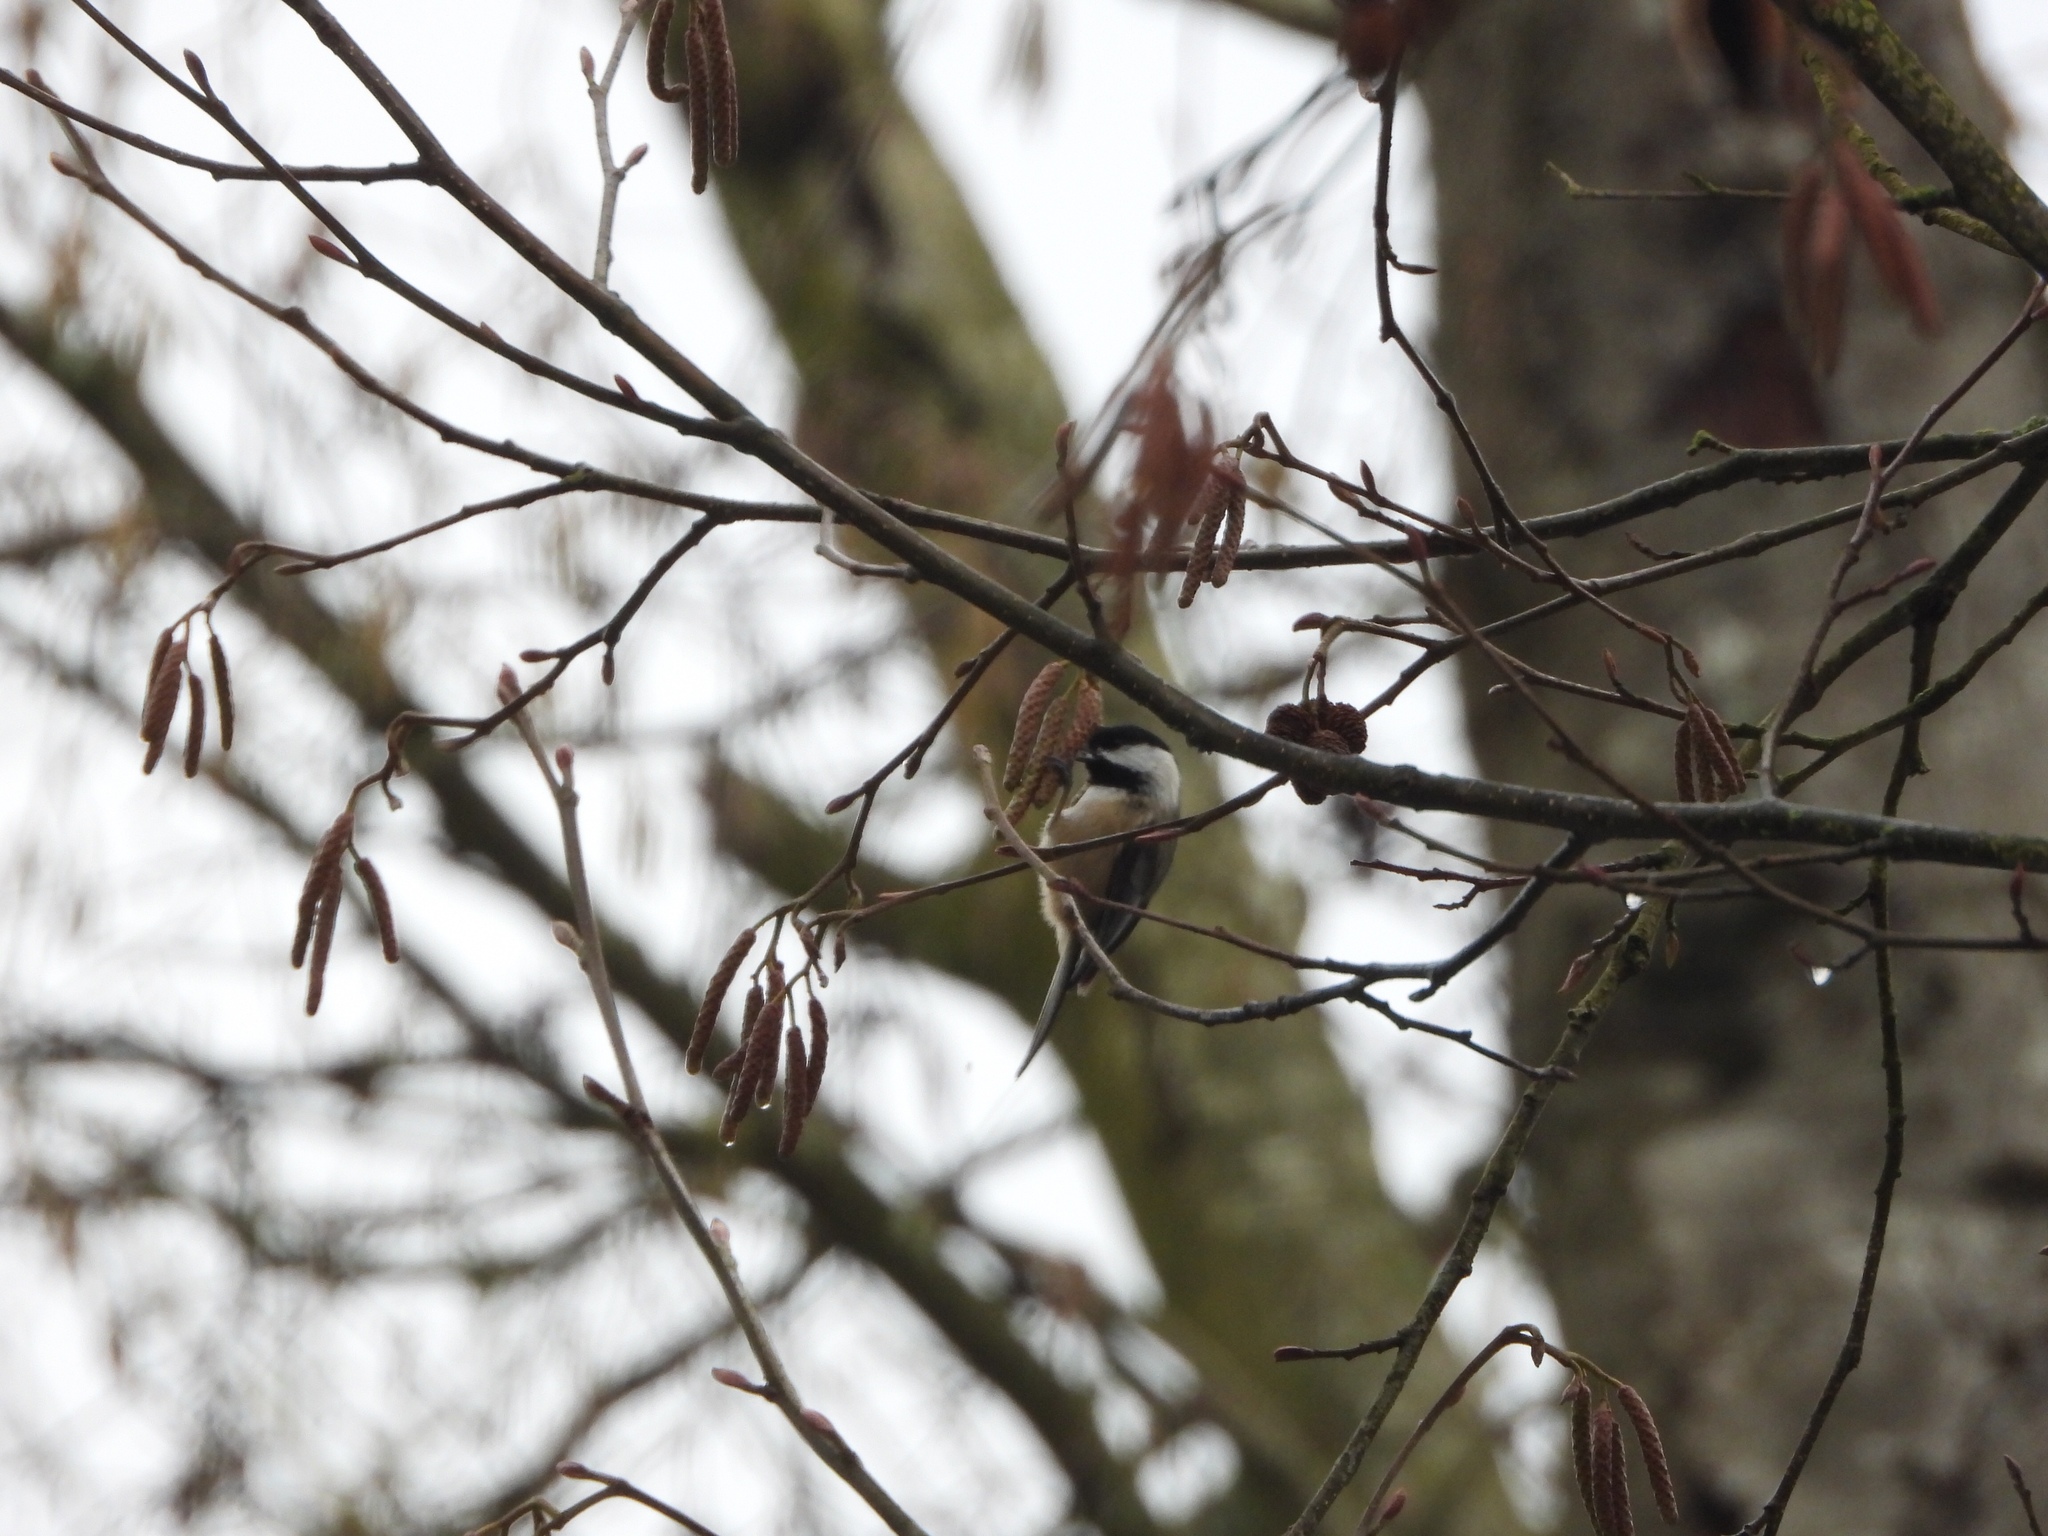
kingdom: Animalia
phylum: Chordata
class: Aves
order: Passeriformes
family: Paridae
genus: Poecile
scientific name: Poecile atricapillus
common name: Black-capped chickadee
